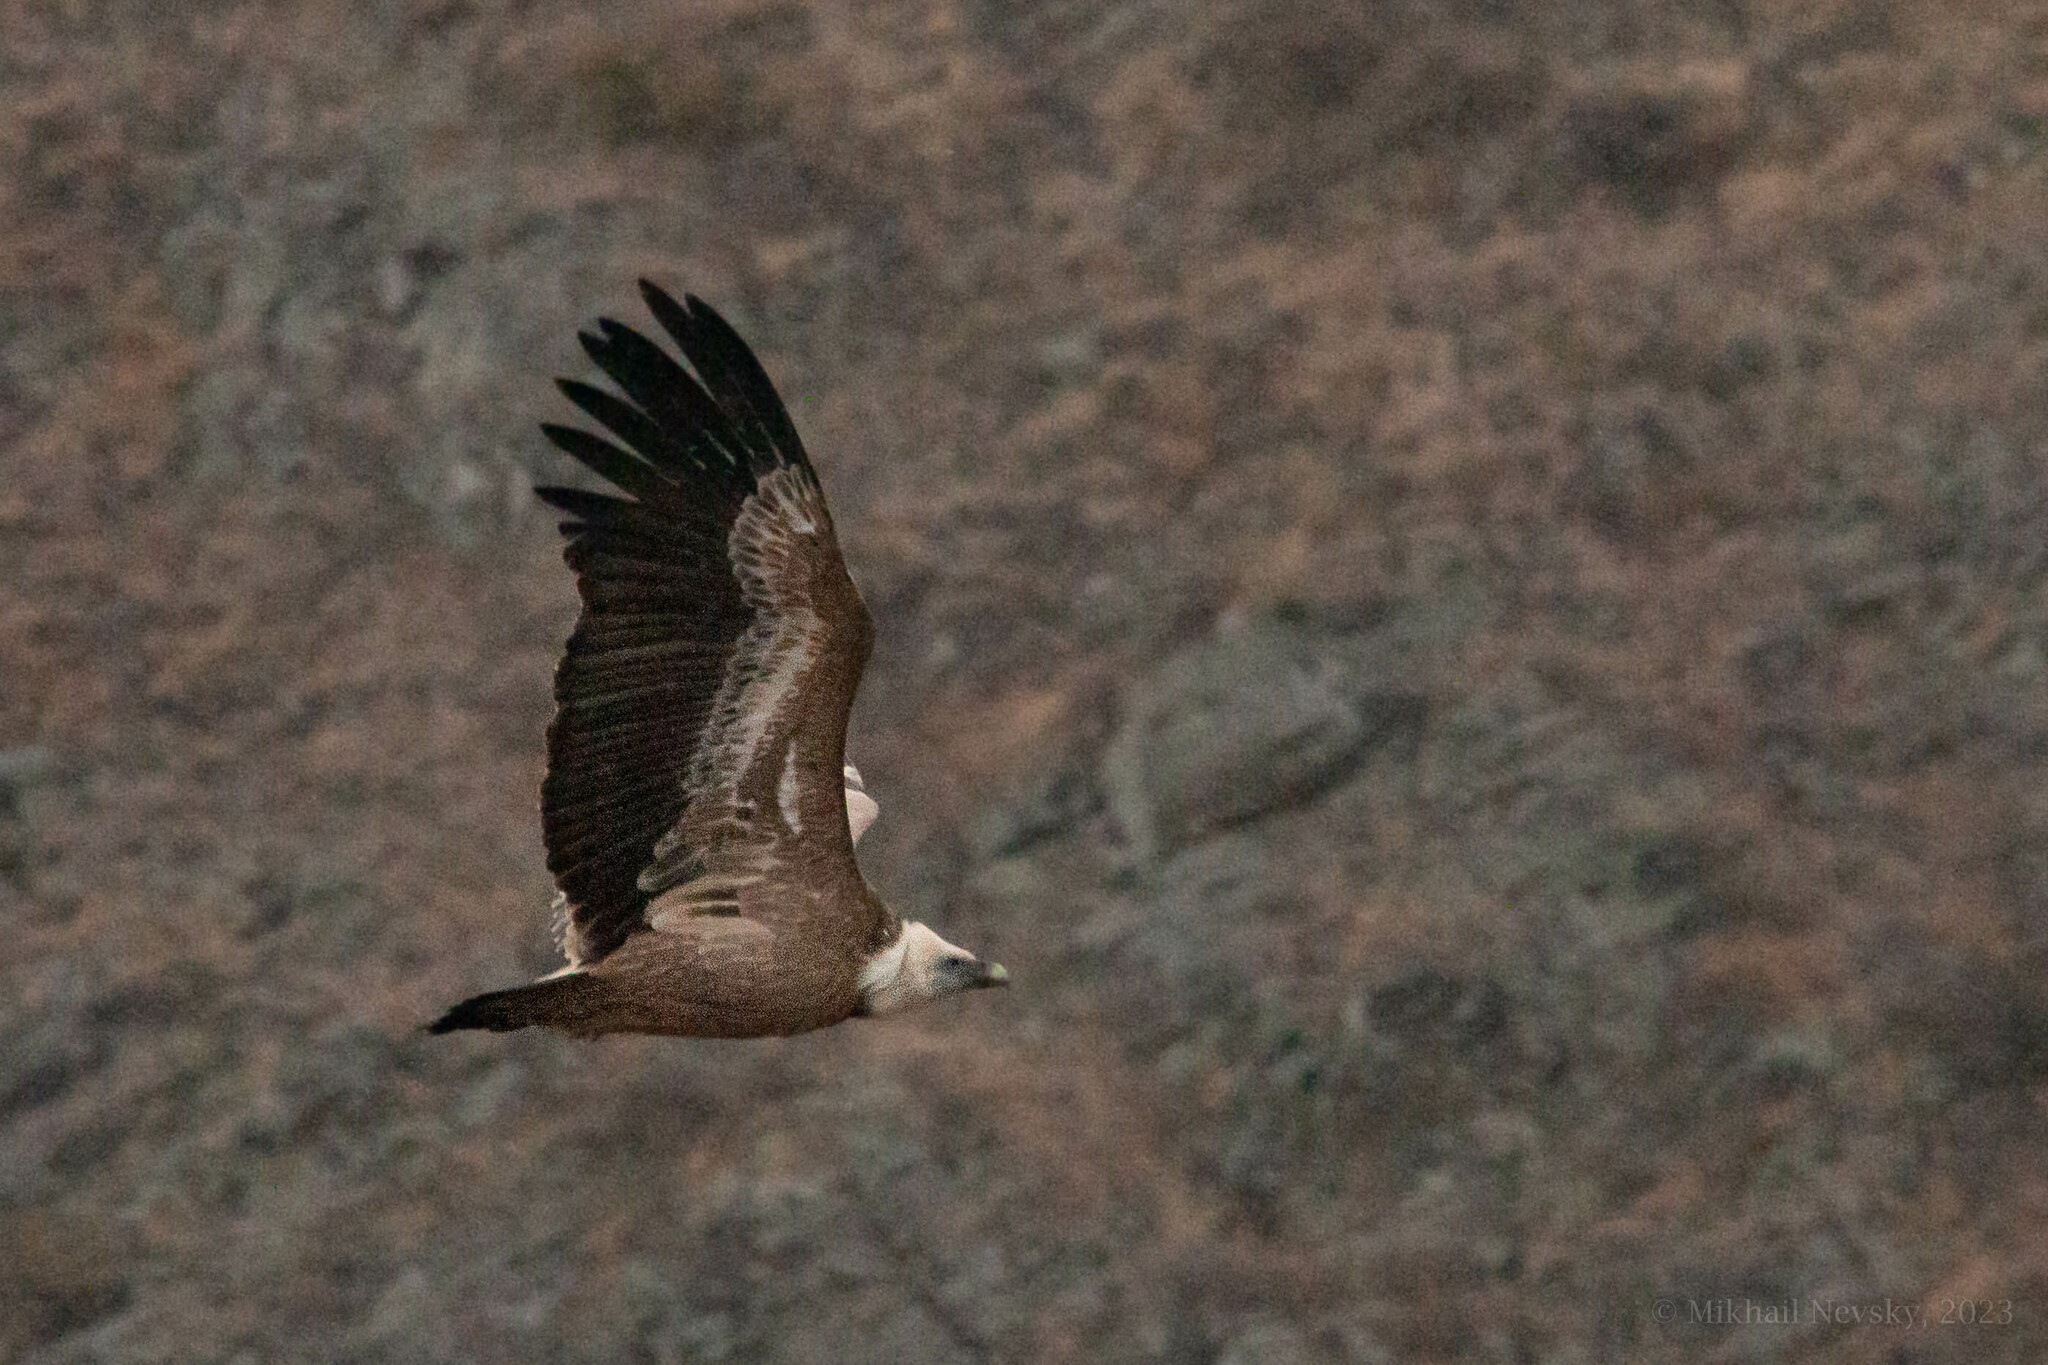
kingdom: Animalia
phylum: Chordata
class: Aves
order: Accipitriformes
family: Accipitridae
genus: Gyps
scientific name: Gyps fulvus
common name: Griffon vulture
